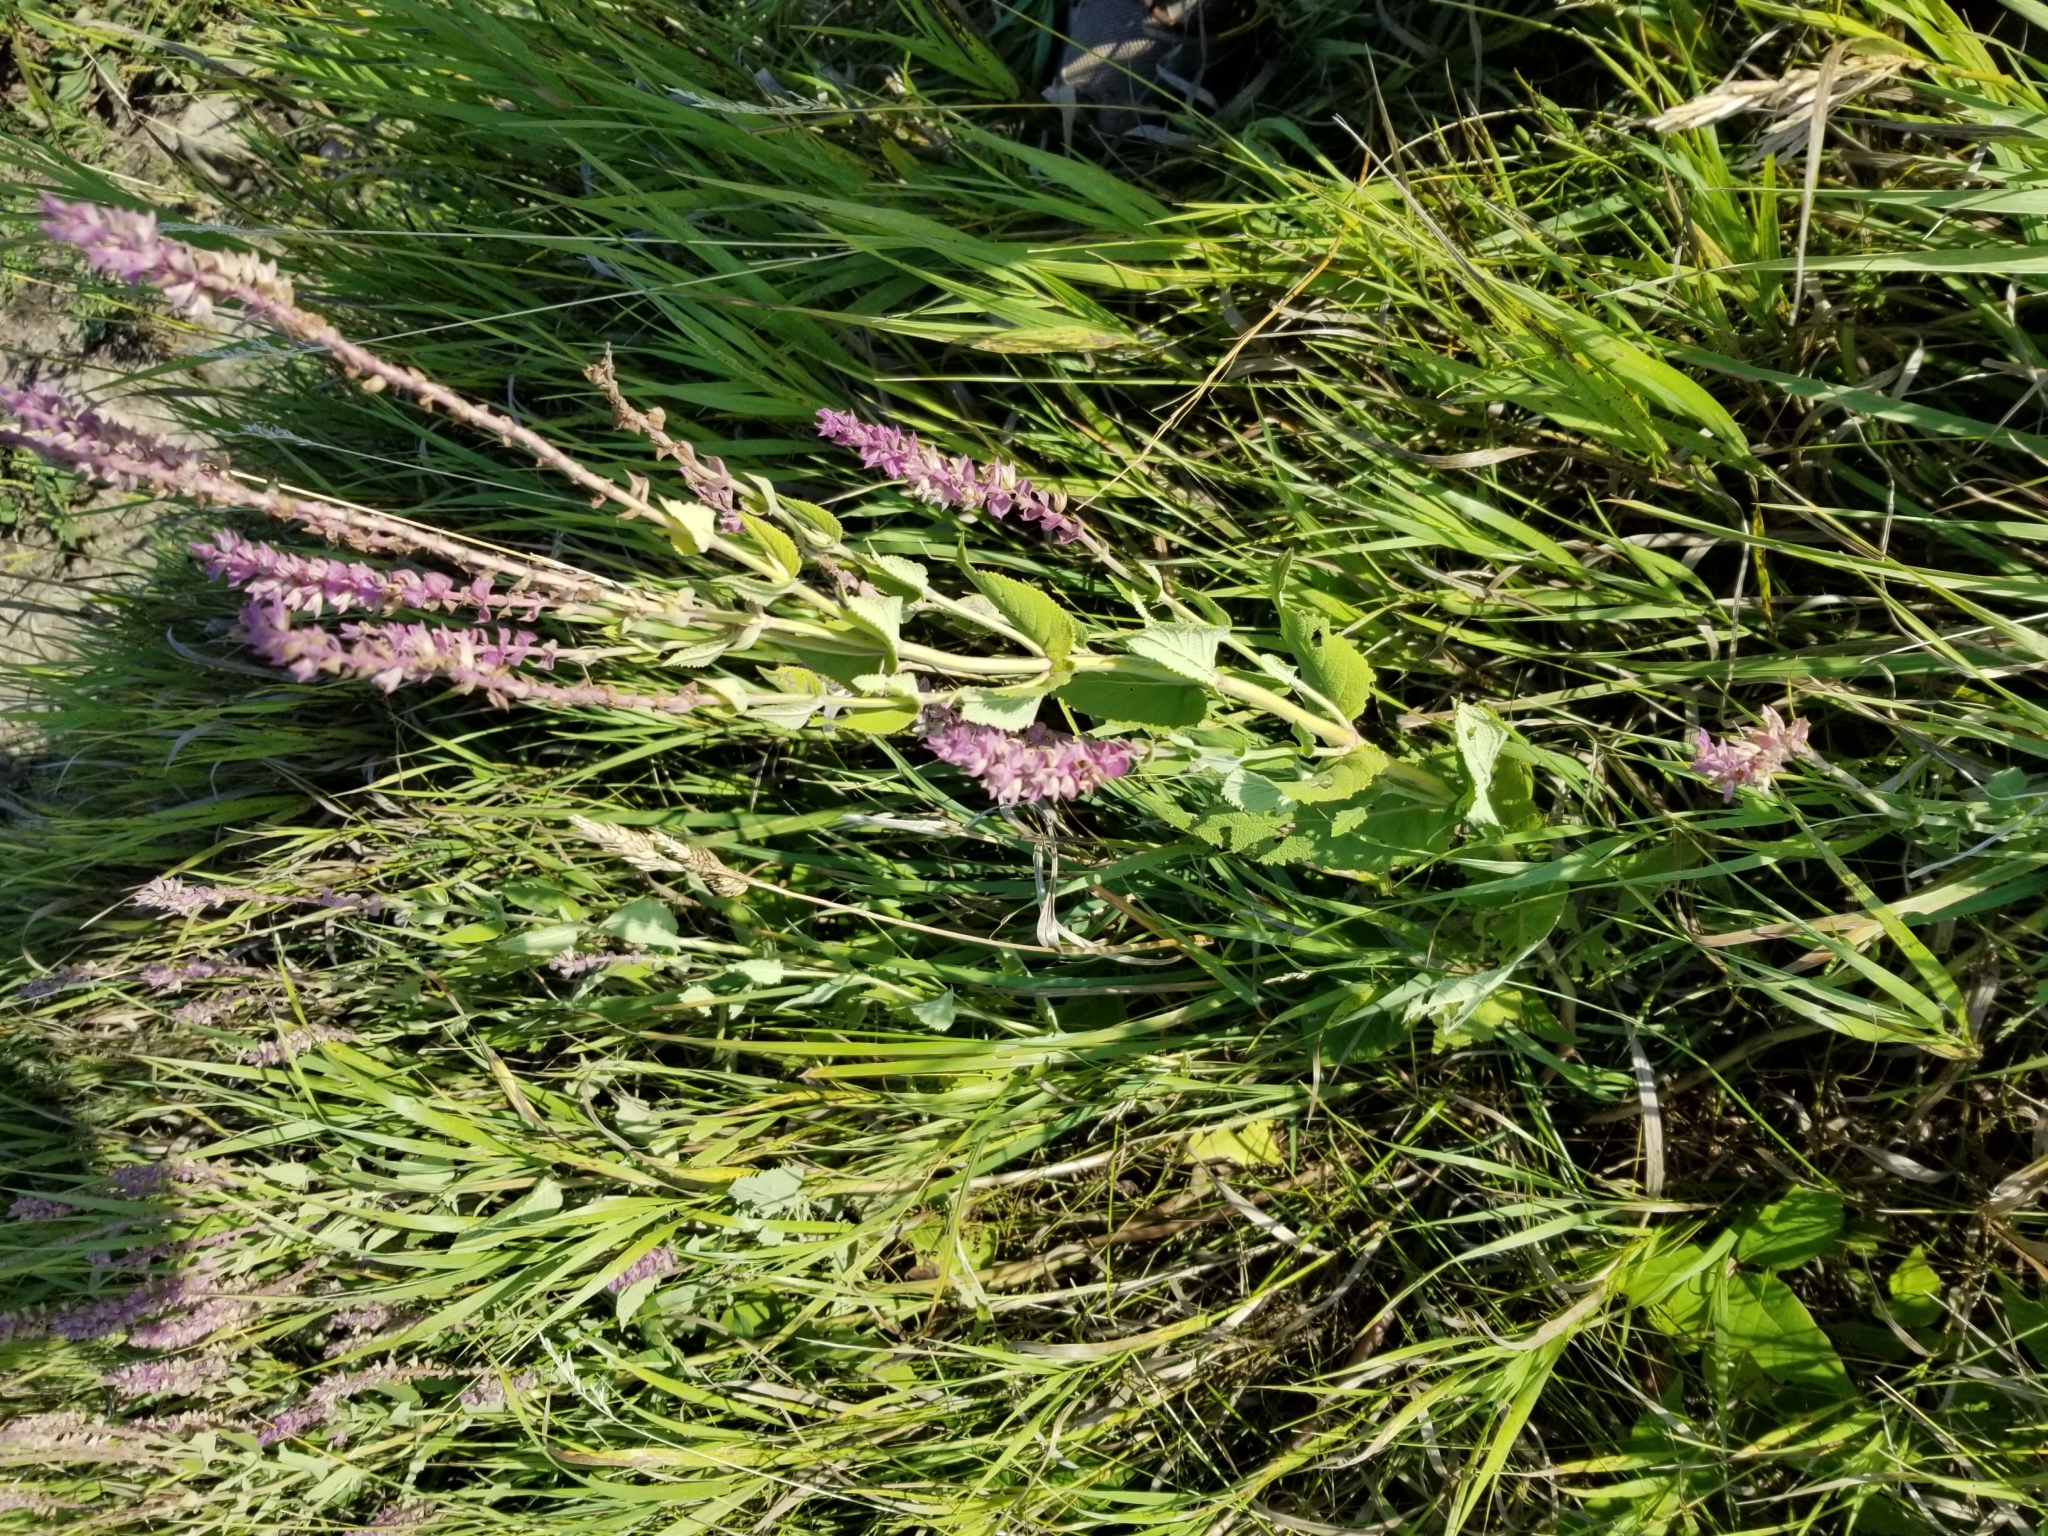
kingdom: Plantae
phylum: Tracheophyta
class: Magnoliopsida
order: Lamiales
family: Verbenaceae
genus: Verbena
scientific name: Verbena stricta
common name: Hoary vervain
